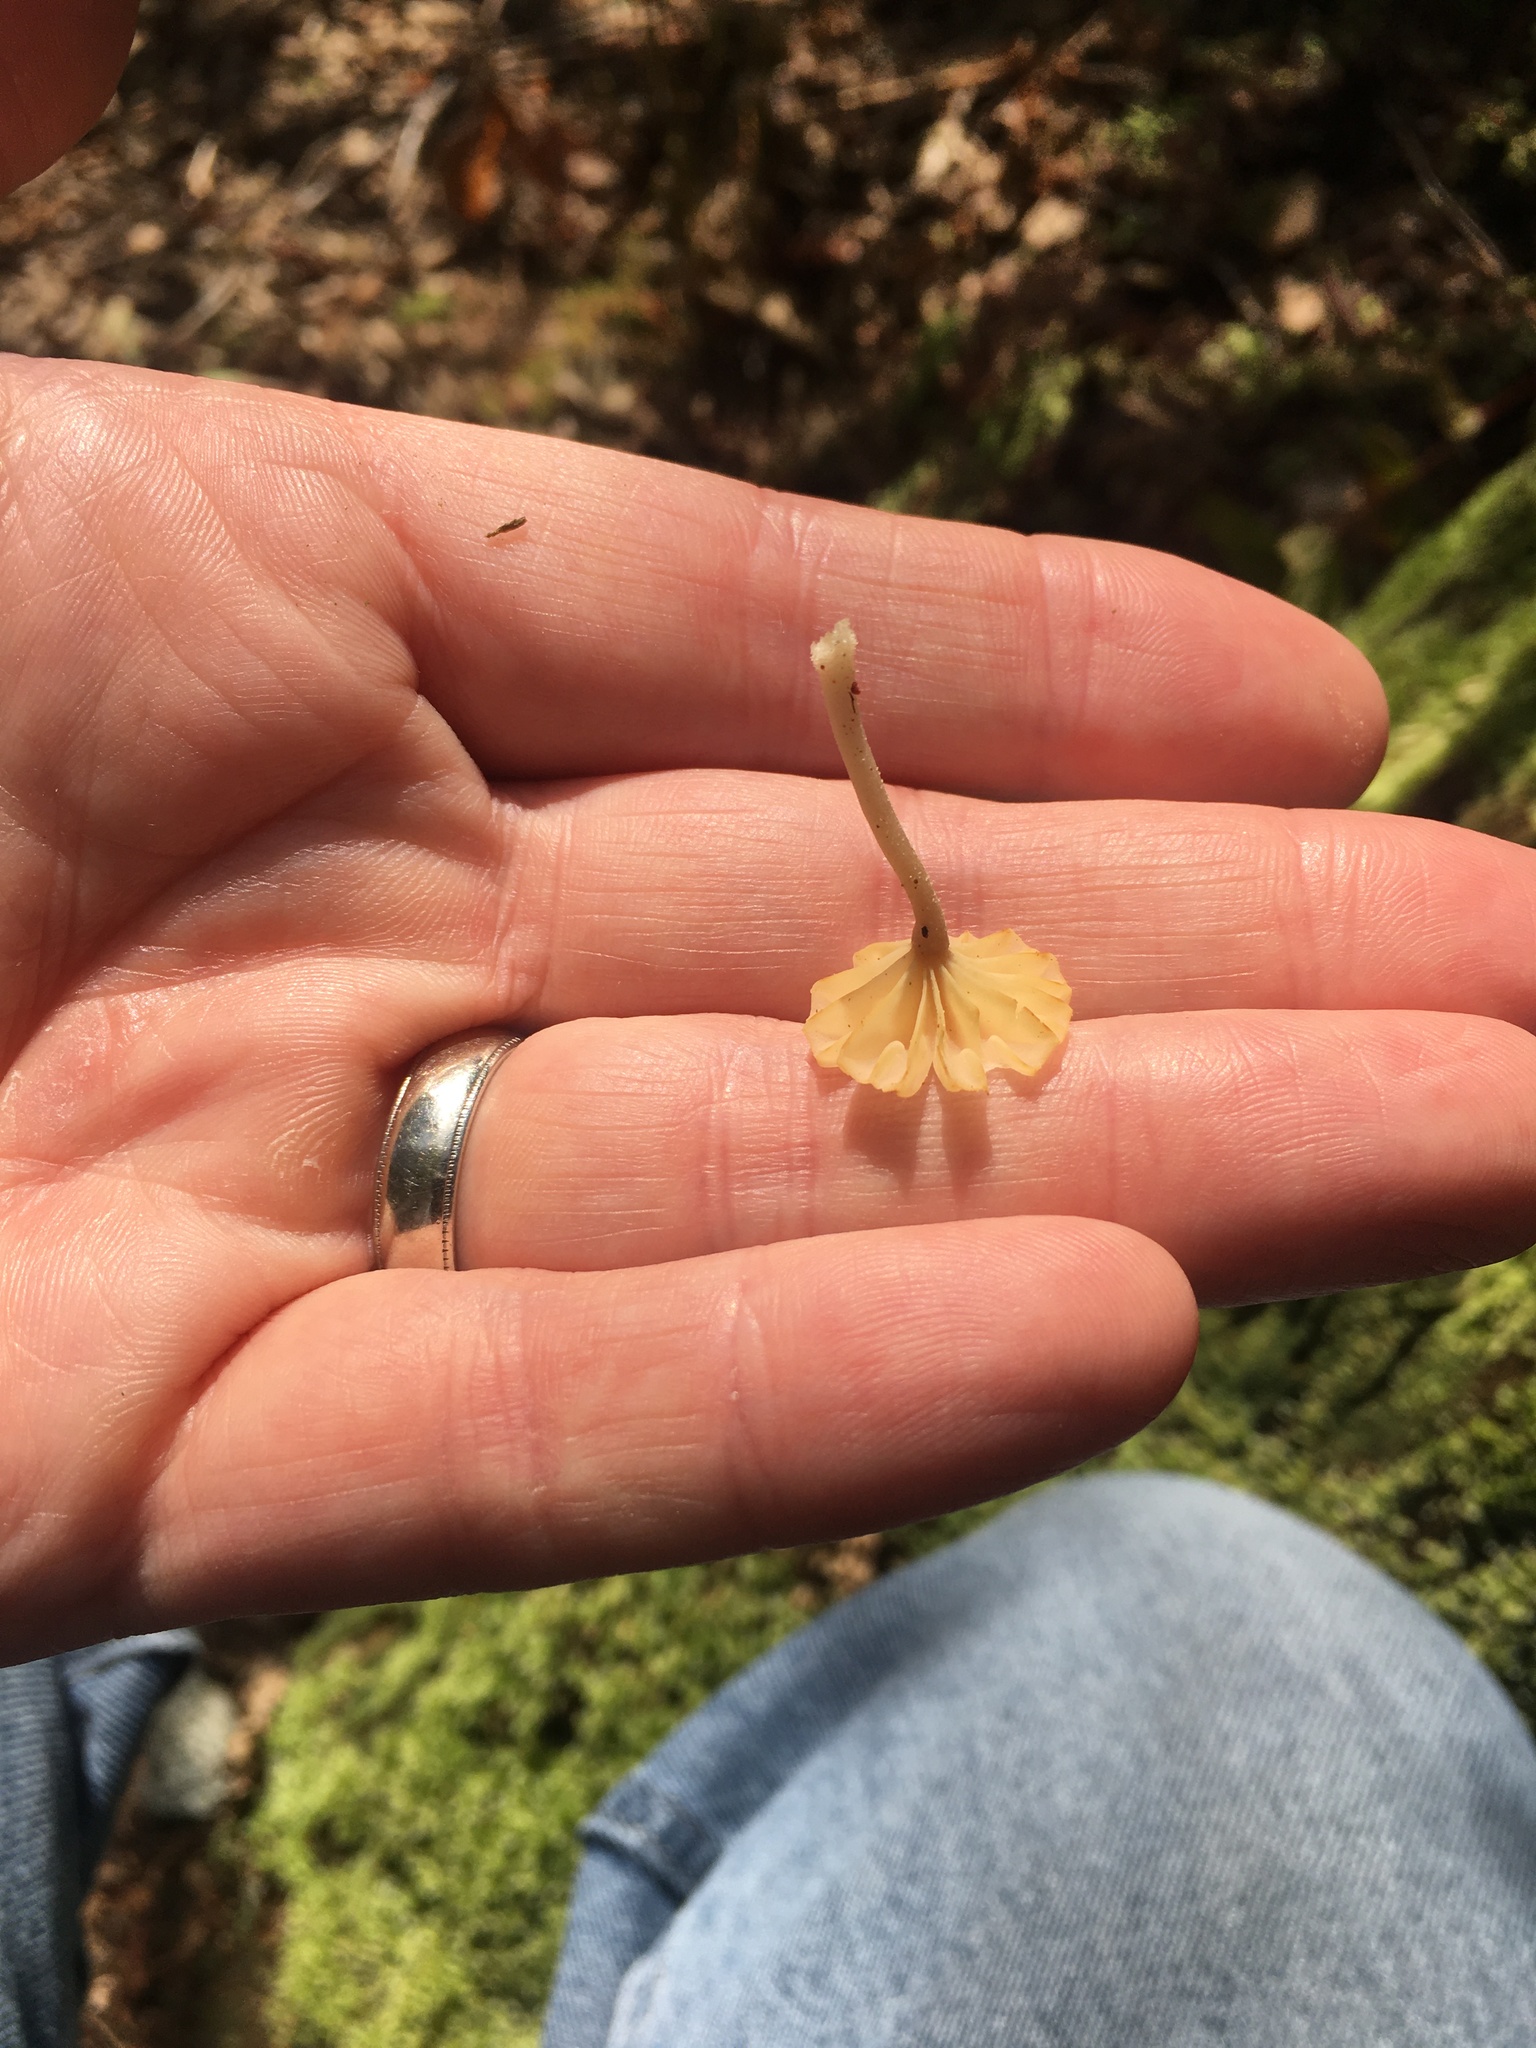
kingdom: Fungi
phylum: Basidiomycota
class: Agaricomycetes
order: Agaricales
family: Hygrophoraceae
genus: Lichenomphalia
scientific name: Lichenomphalia
